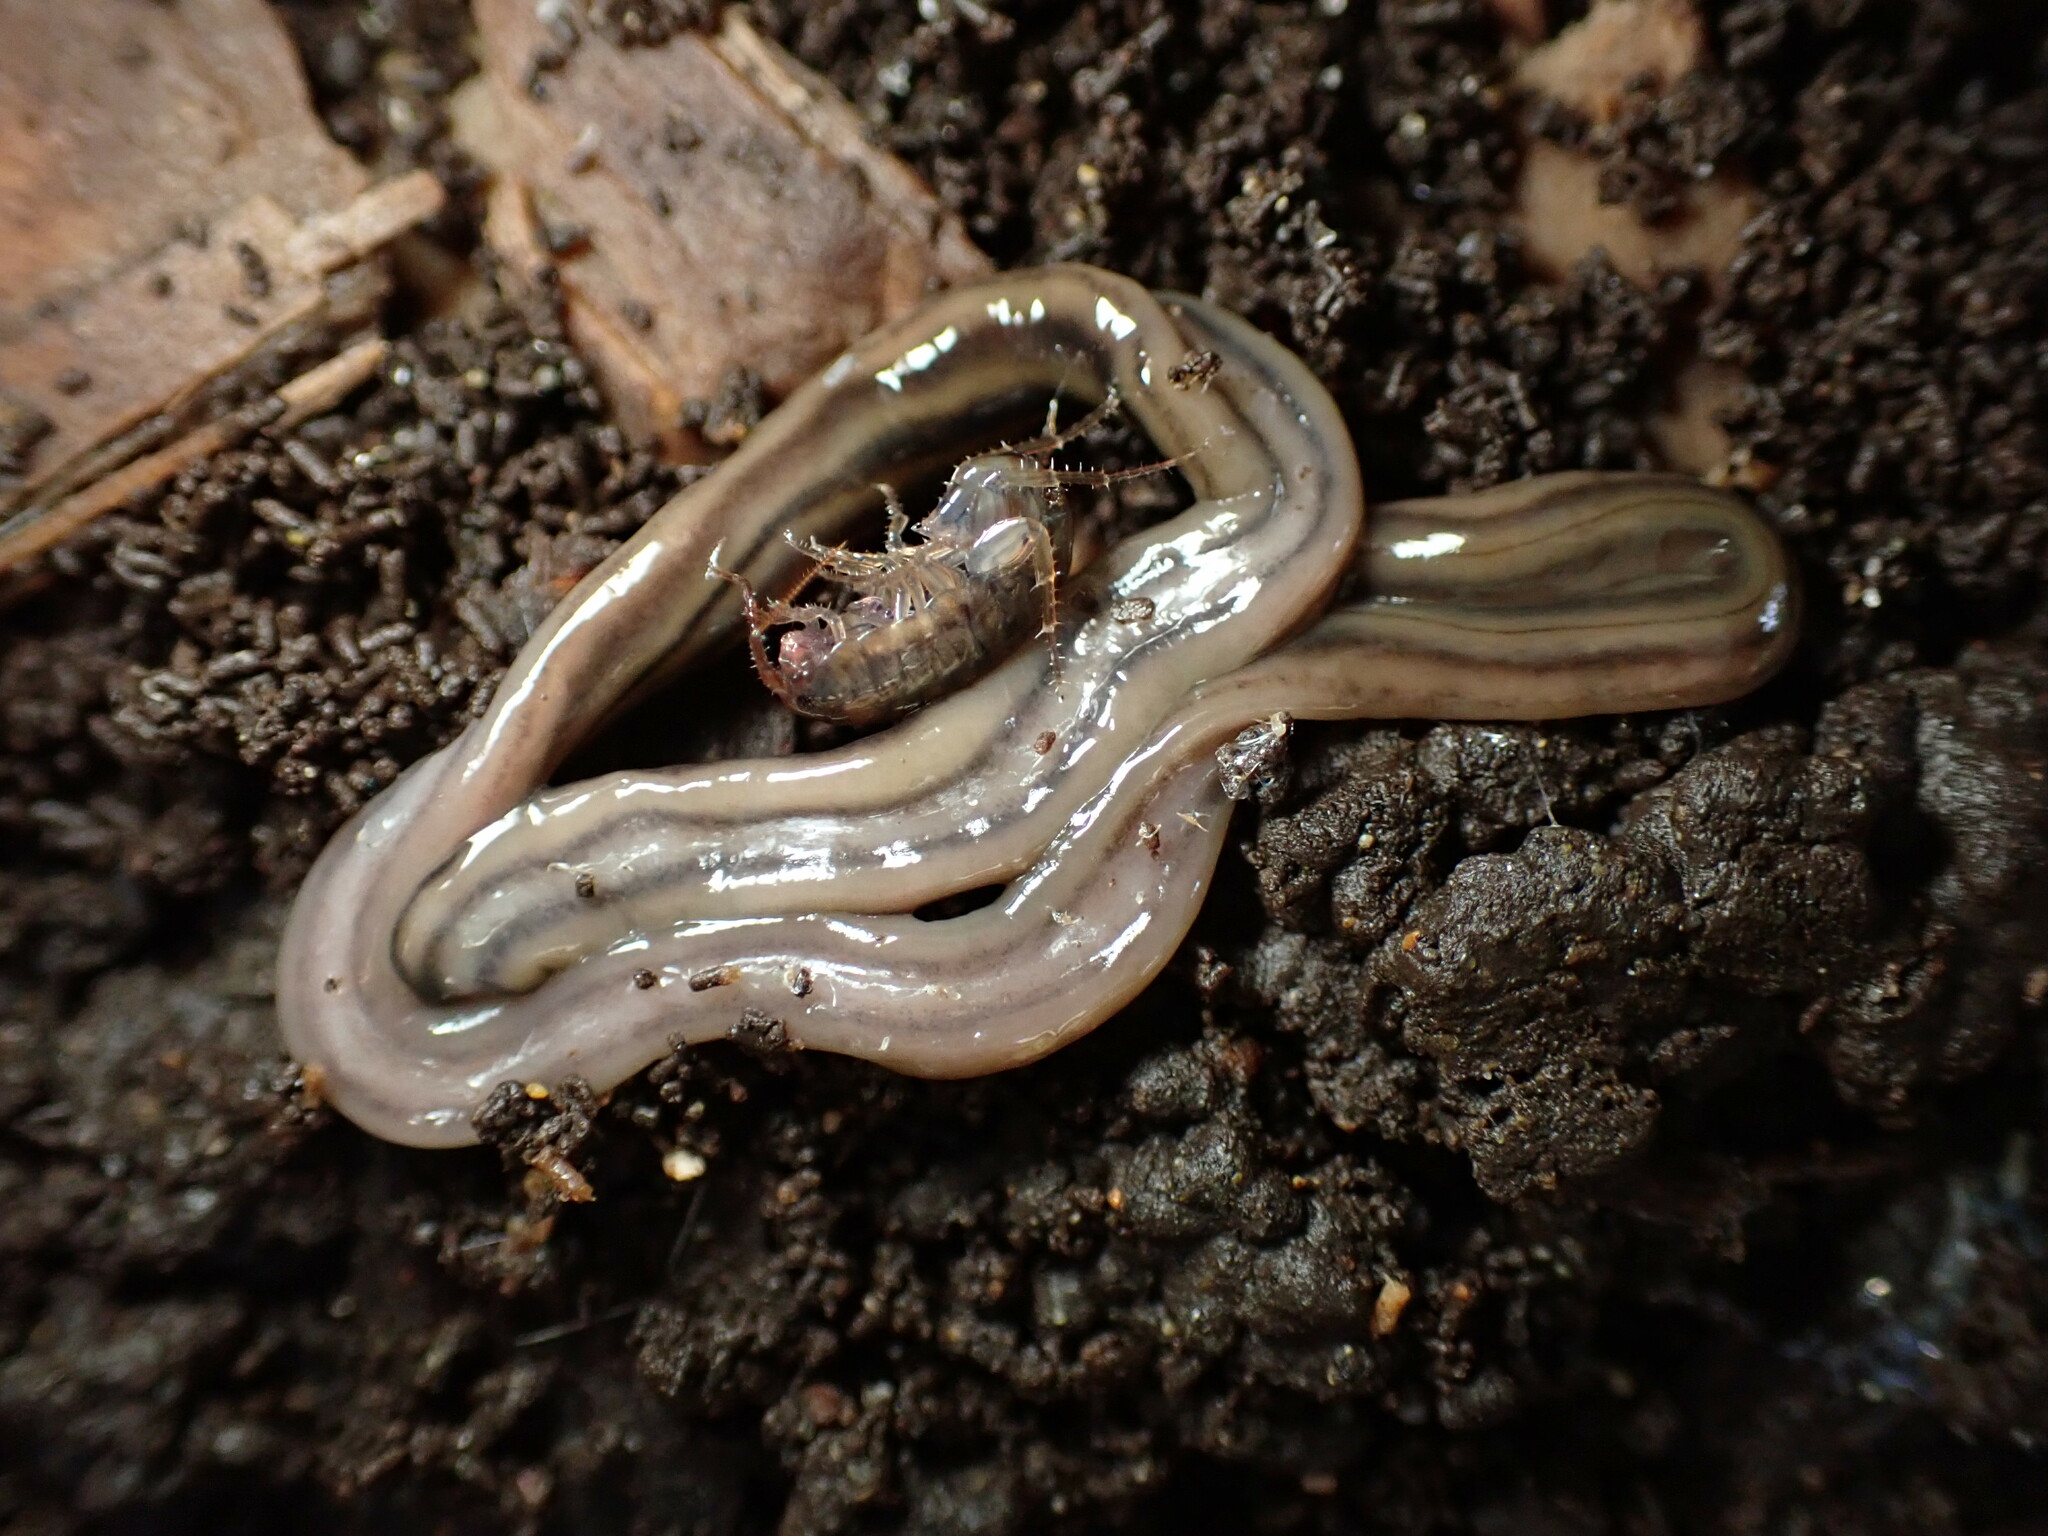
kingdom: Animalia
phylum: Platyhelminthes
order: Tricladida
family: Geoplanidae
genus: Bipalium
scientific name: Bipalium kewense
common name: Hammerhead flatworm
